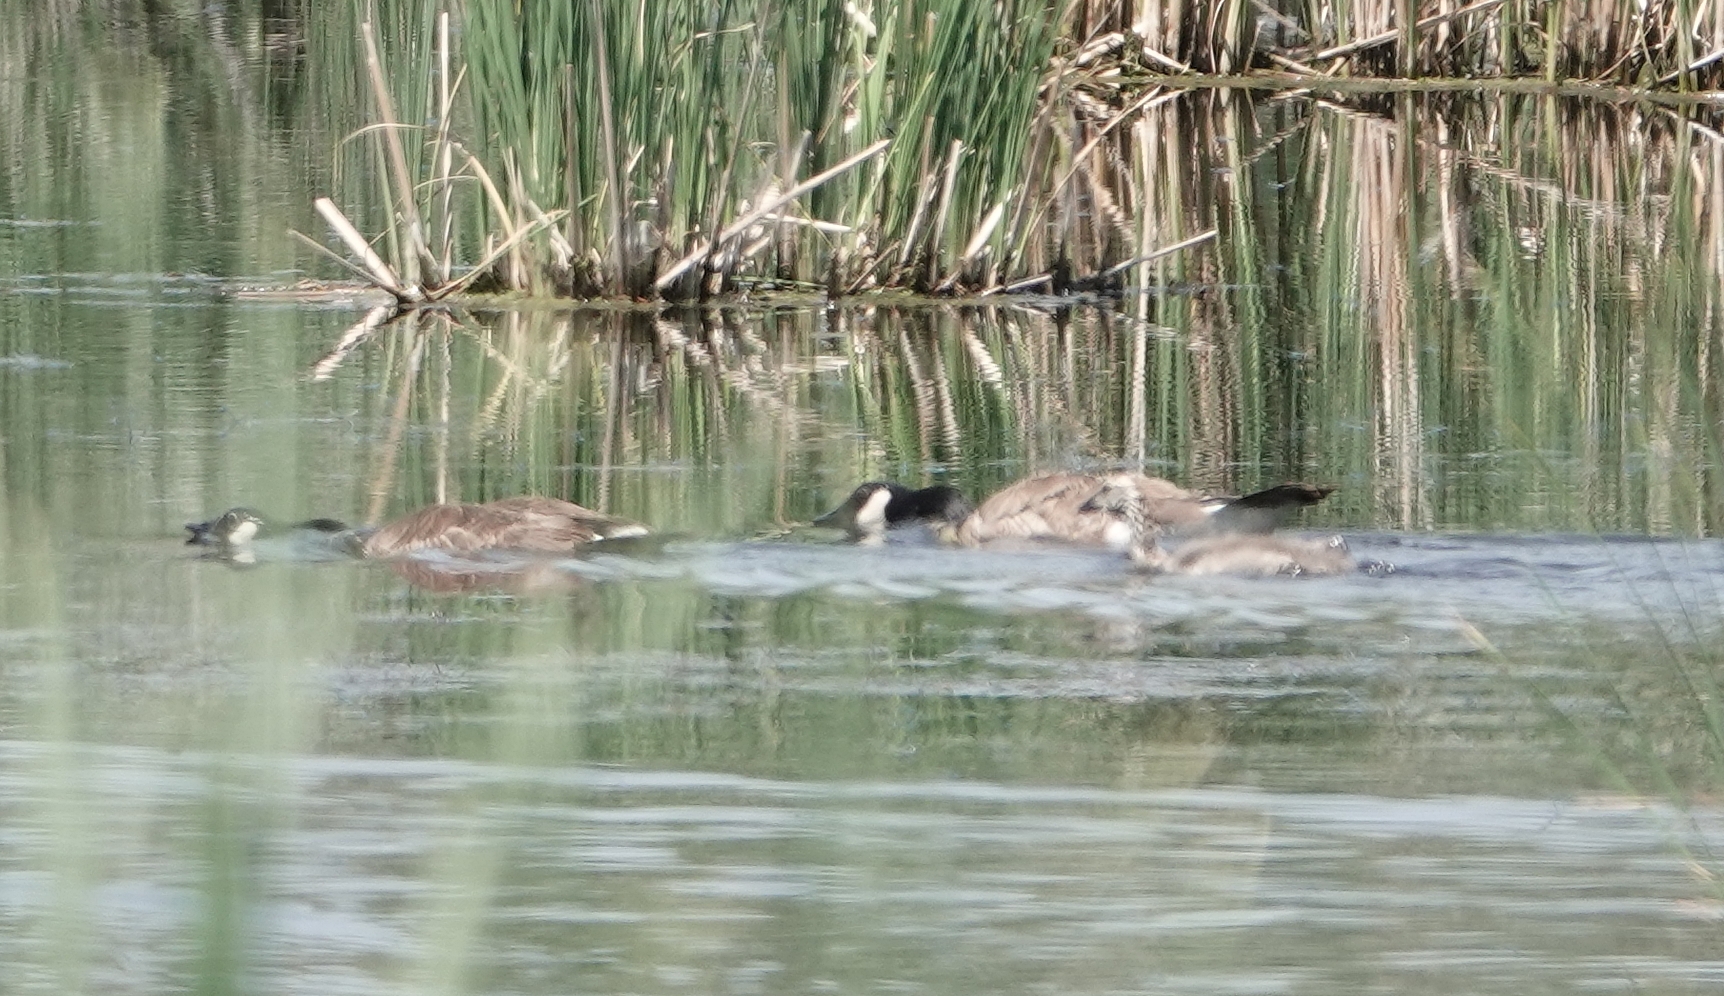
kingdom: Animalia
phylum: Chordata
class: Aves
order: Anseriformes
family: Anatidae
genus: Branta
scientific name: Branta canadensis
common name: Canada goose
